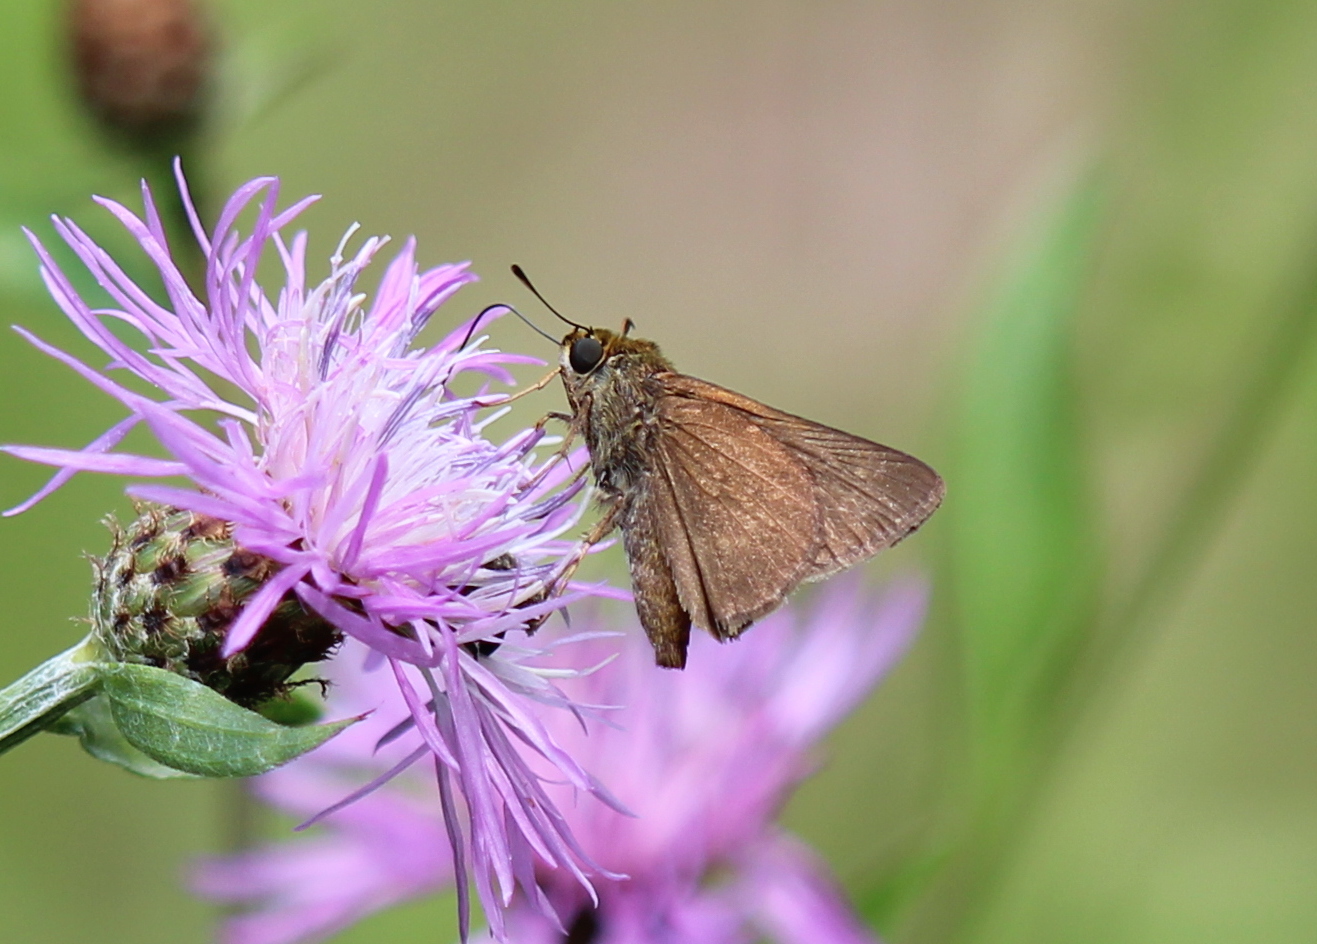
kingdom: Animalia
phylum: Arthropoda
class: Insecta
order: Lepidoptera
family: Hesperiidae
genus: Euphyes
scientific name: Euphyes vestris
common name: Dun skipper
